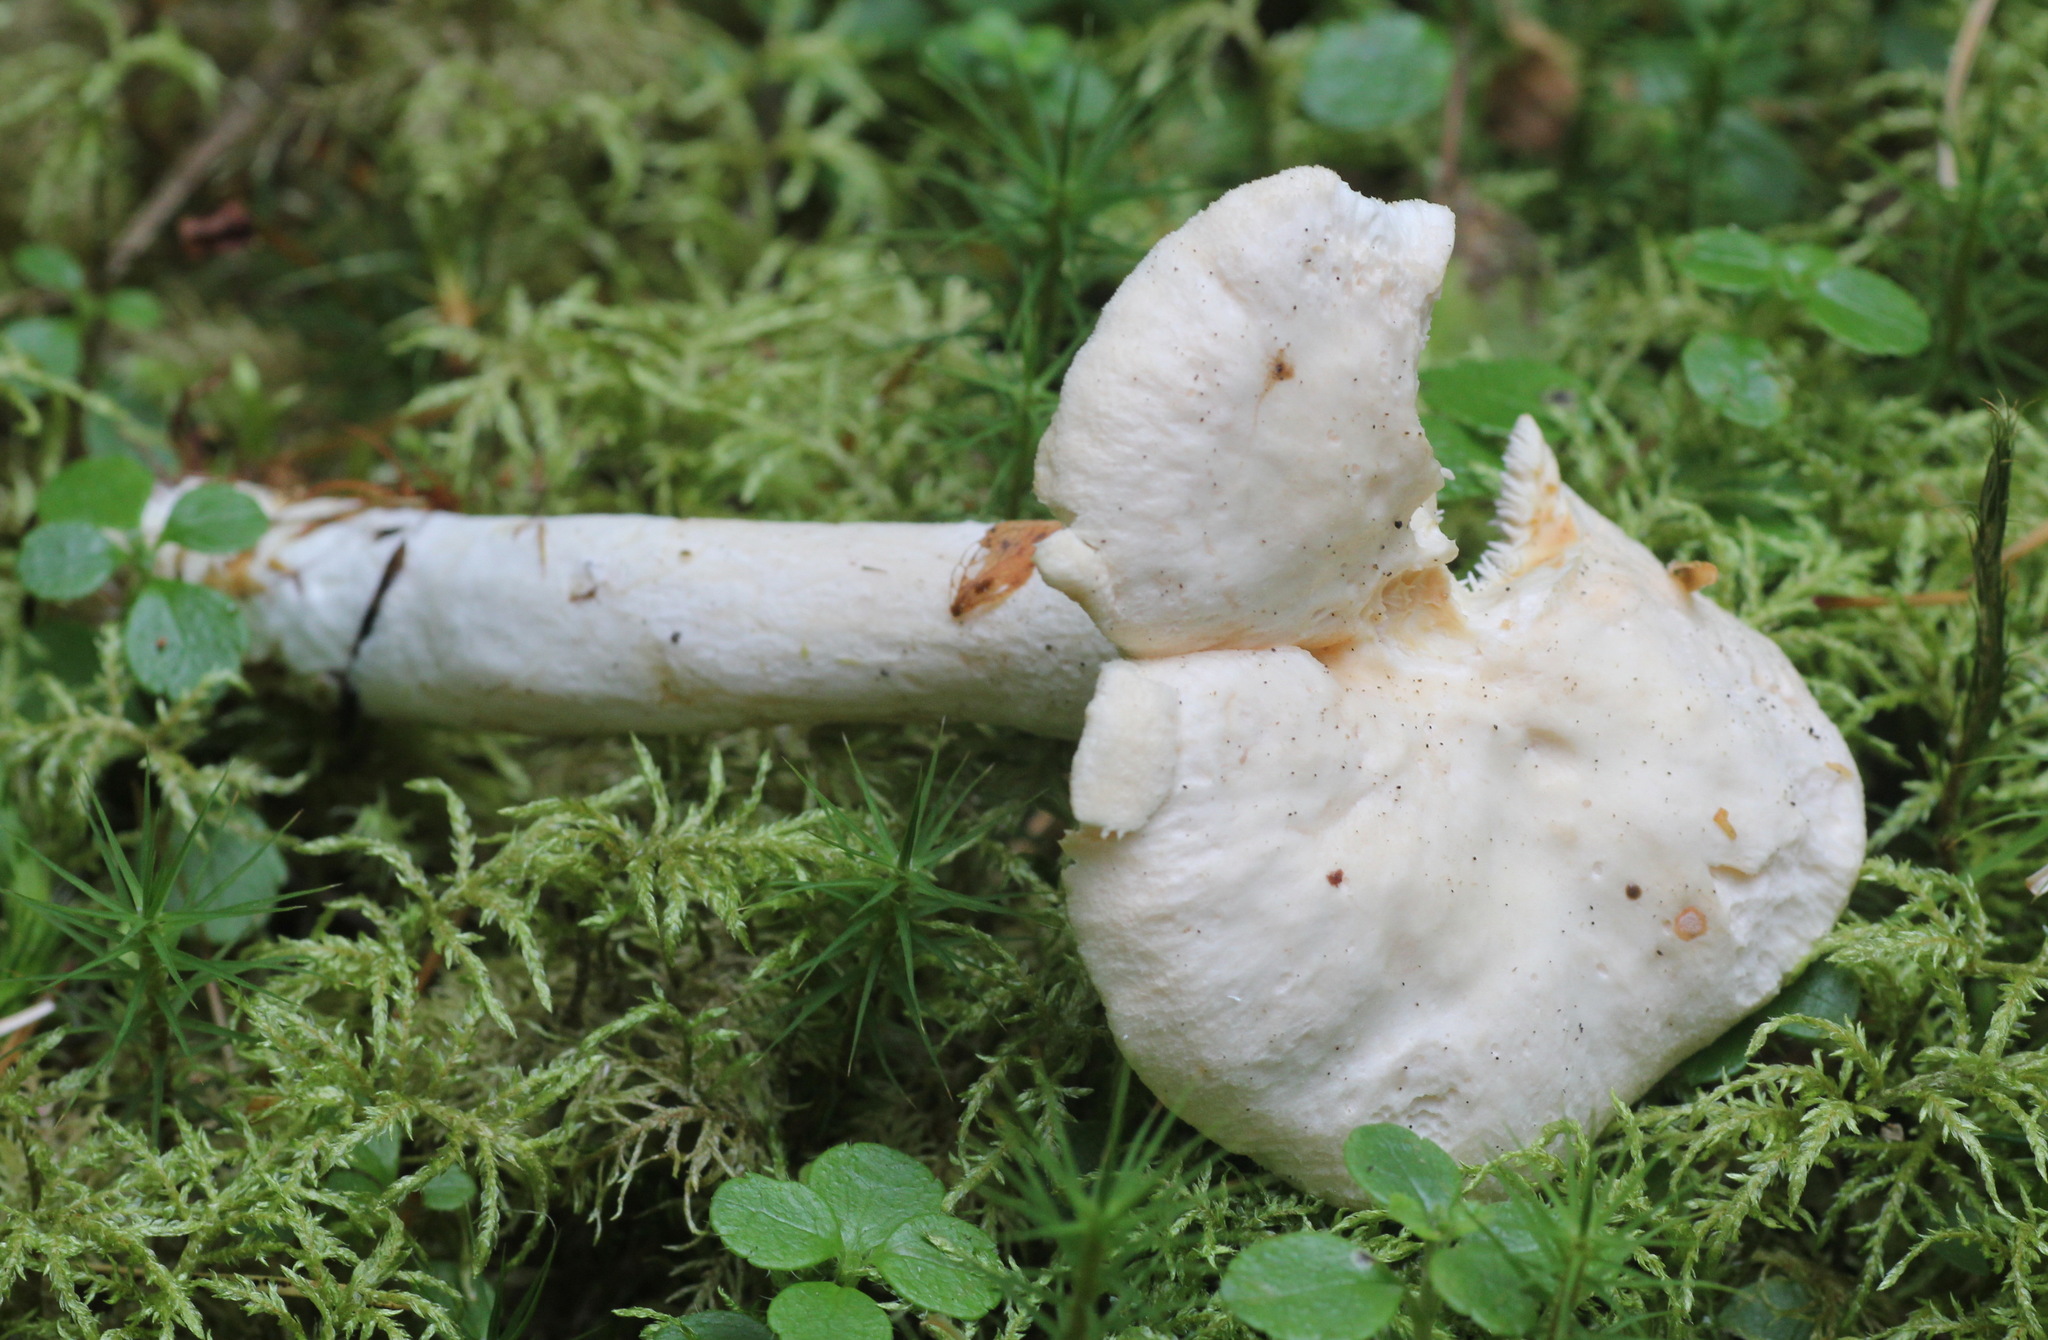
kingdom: Fungi
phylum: Basidiomycota
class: Agaricomycetes
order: Cantharellales
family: Hydnaceae
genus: Hydnum
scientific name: Hydnum repandum
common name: Wood hedgehog
